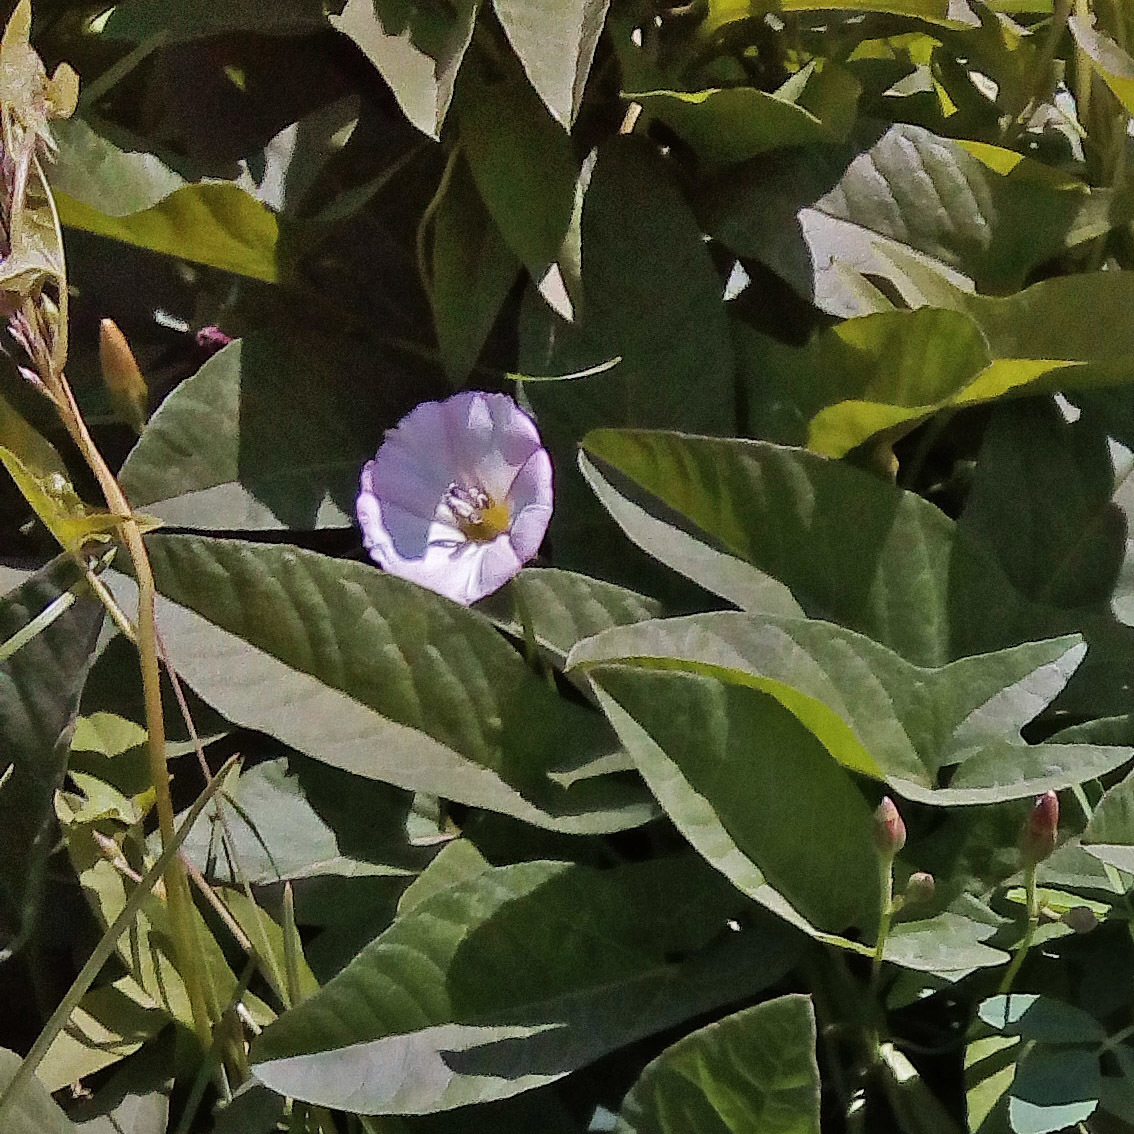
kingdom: Plantae
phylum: Tracheophyta
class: Magnoliopsida
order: Solanales
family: Convolvulaceae
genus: Convolvulus
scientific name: Convolvulus arvensis
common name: Field bindweed
